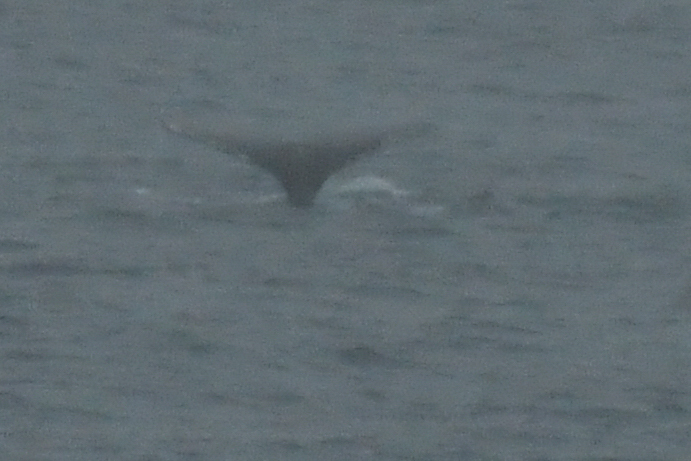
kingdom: Animalia
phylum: Chordata
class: Mammalia
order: Cetacea
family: Balaenopteridae
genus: Megaptera
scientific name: Megaptera novaeangliae
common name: Humpback whale
